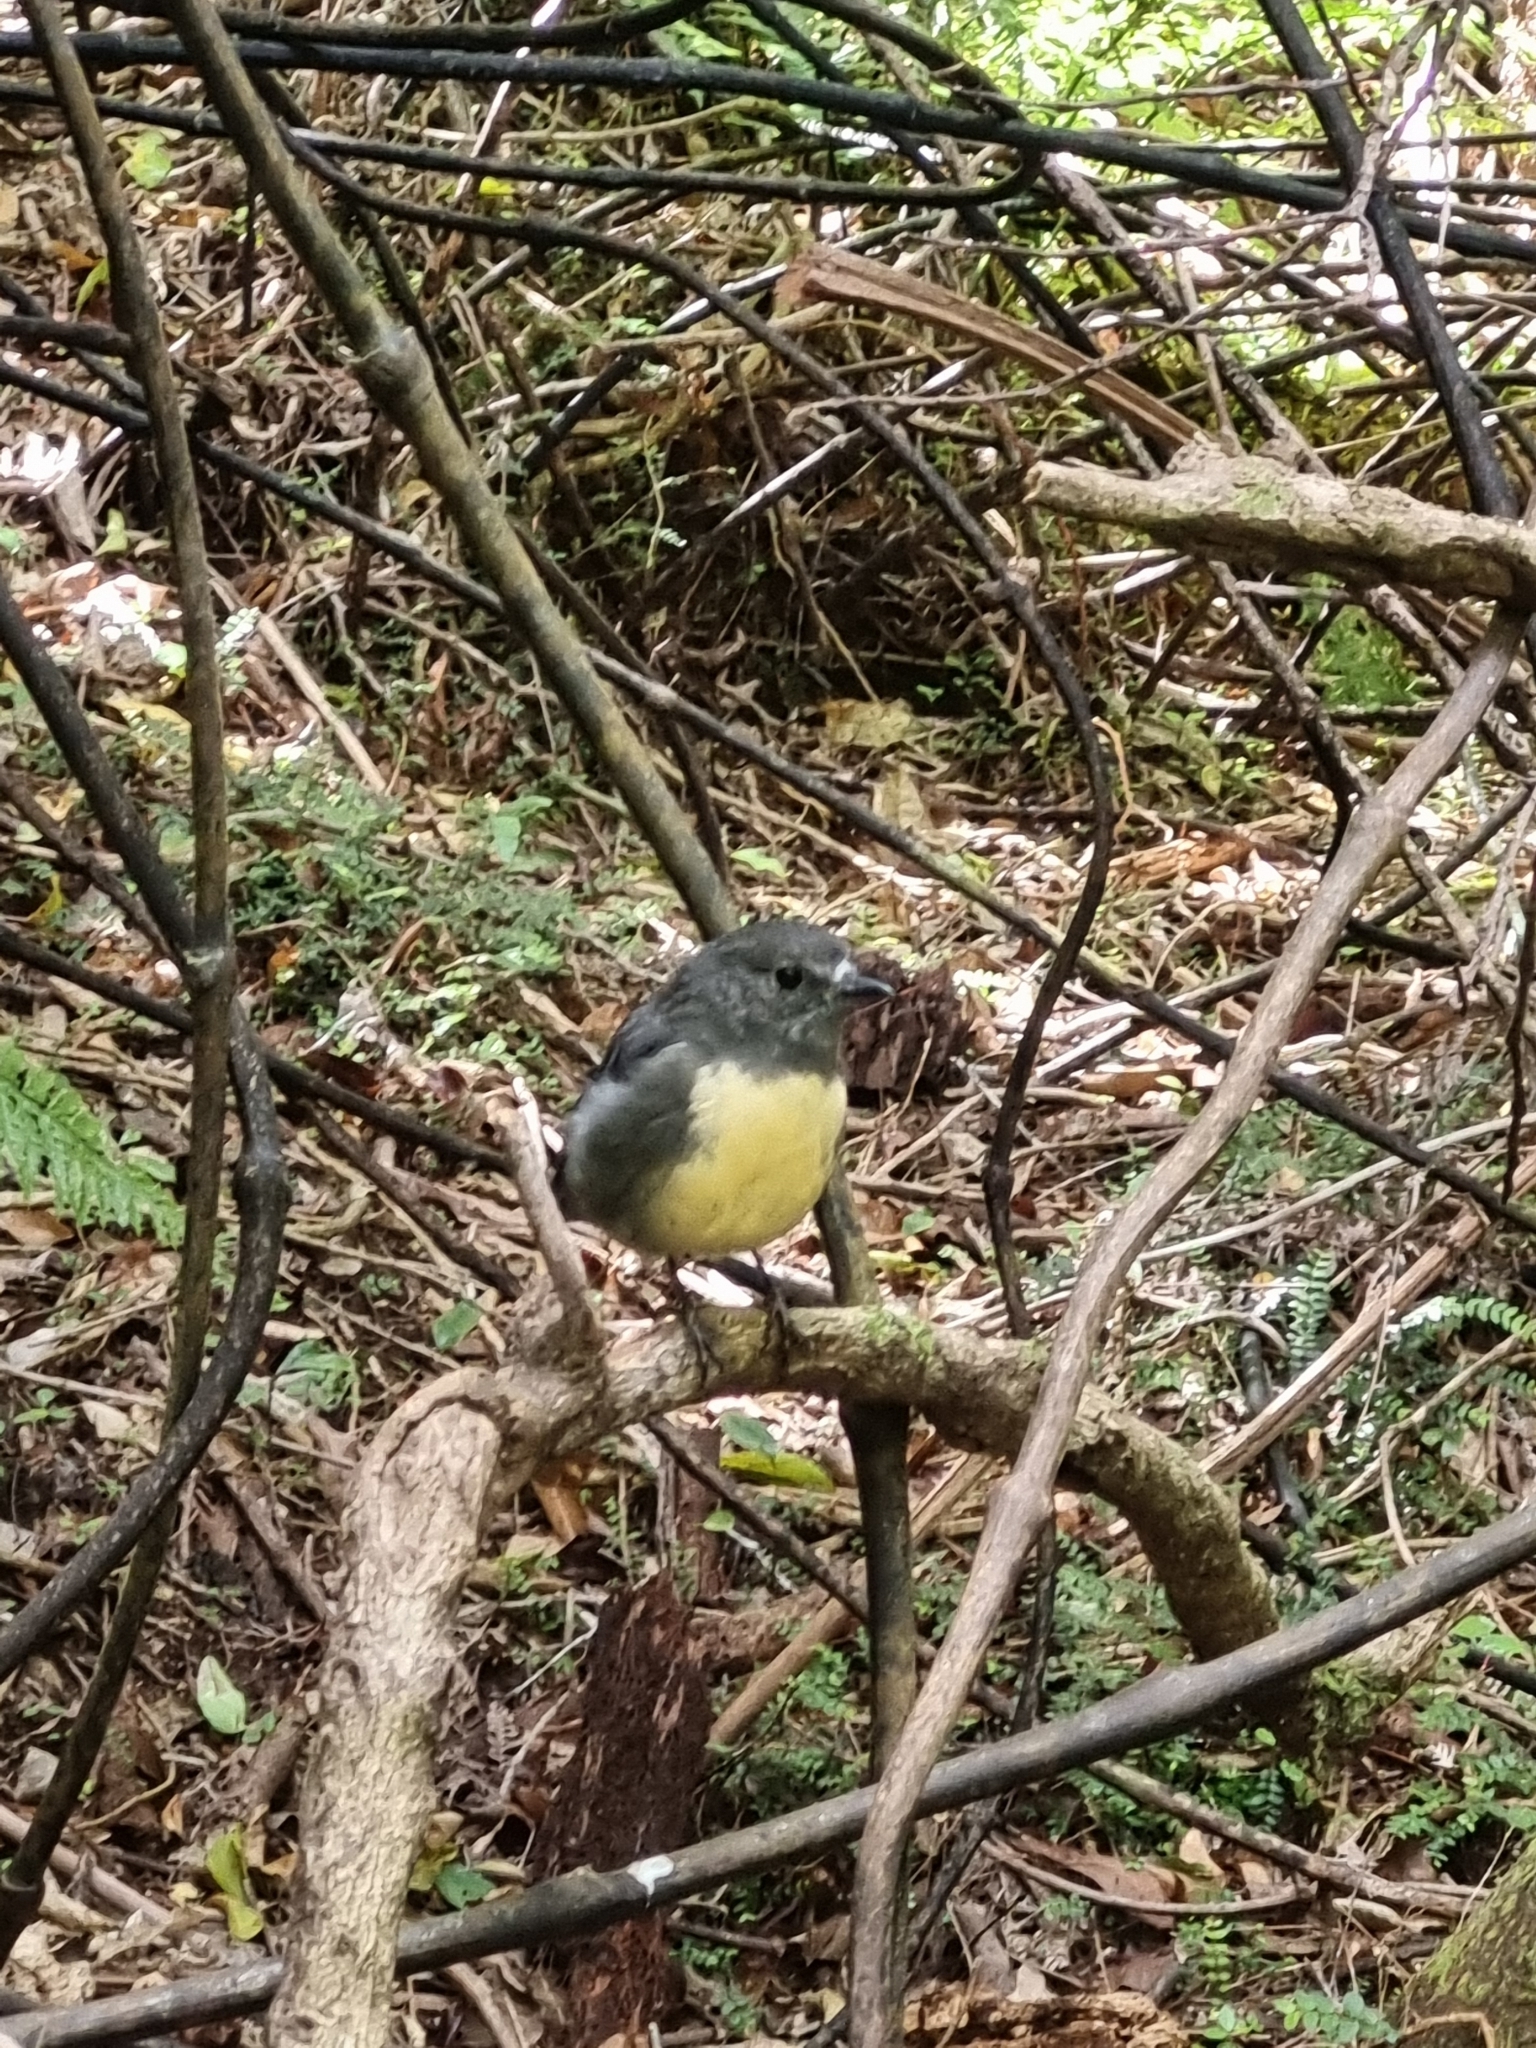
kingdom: Animalia
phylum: Chordata
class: Aves
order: Passeriformes
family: Petroicidae
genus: Petroica
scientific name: Petroica australis
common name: New zealand robin
